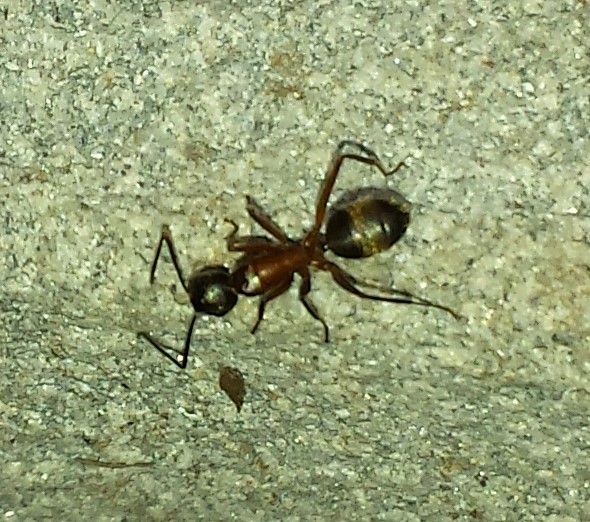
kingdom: Animalia
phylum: Arthropoda
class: Insecta
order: Hymenoptera
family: Formicidae
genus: Camponotus
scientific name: Camponotus chromaiodes
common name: Red carpenter ant
